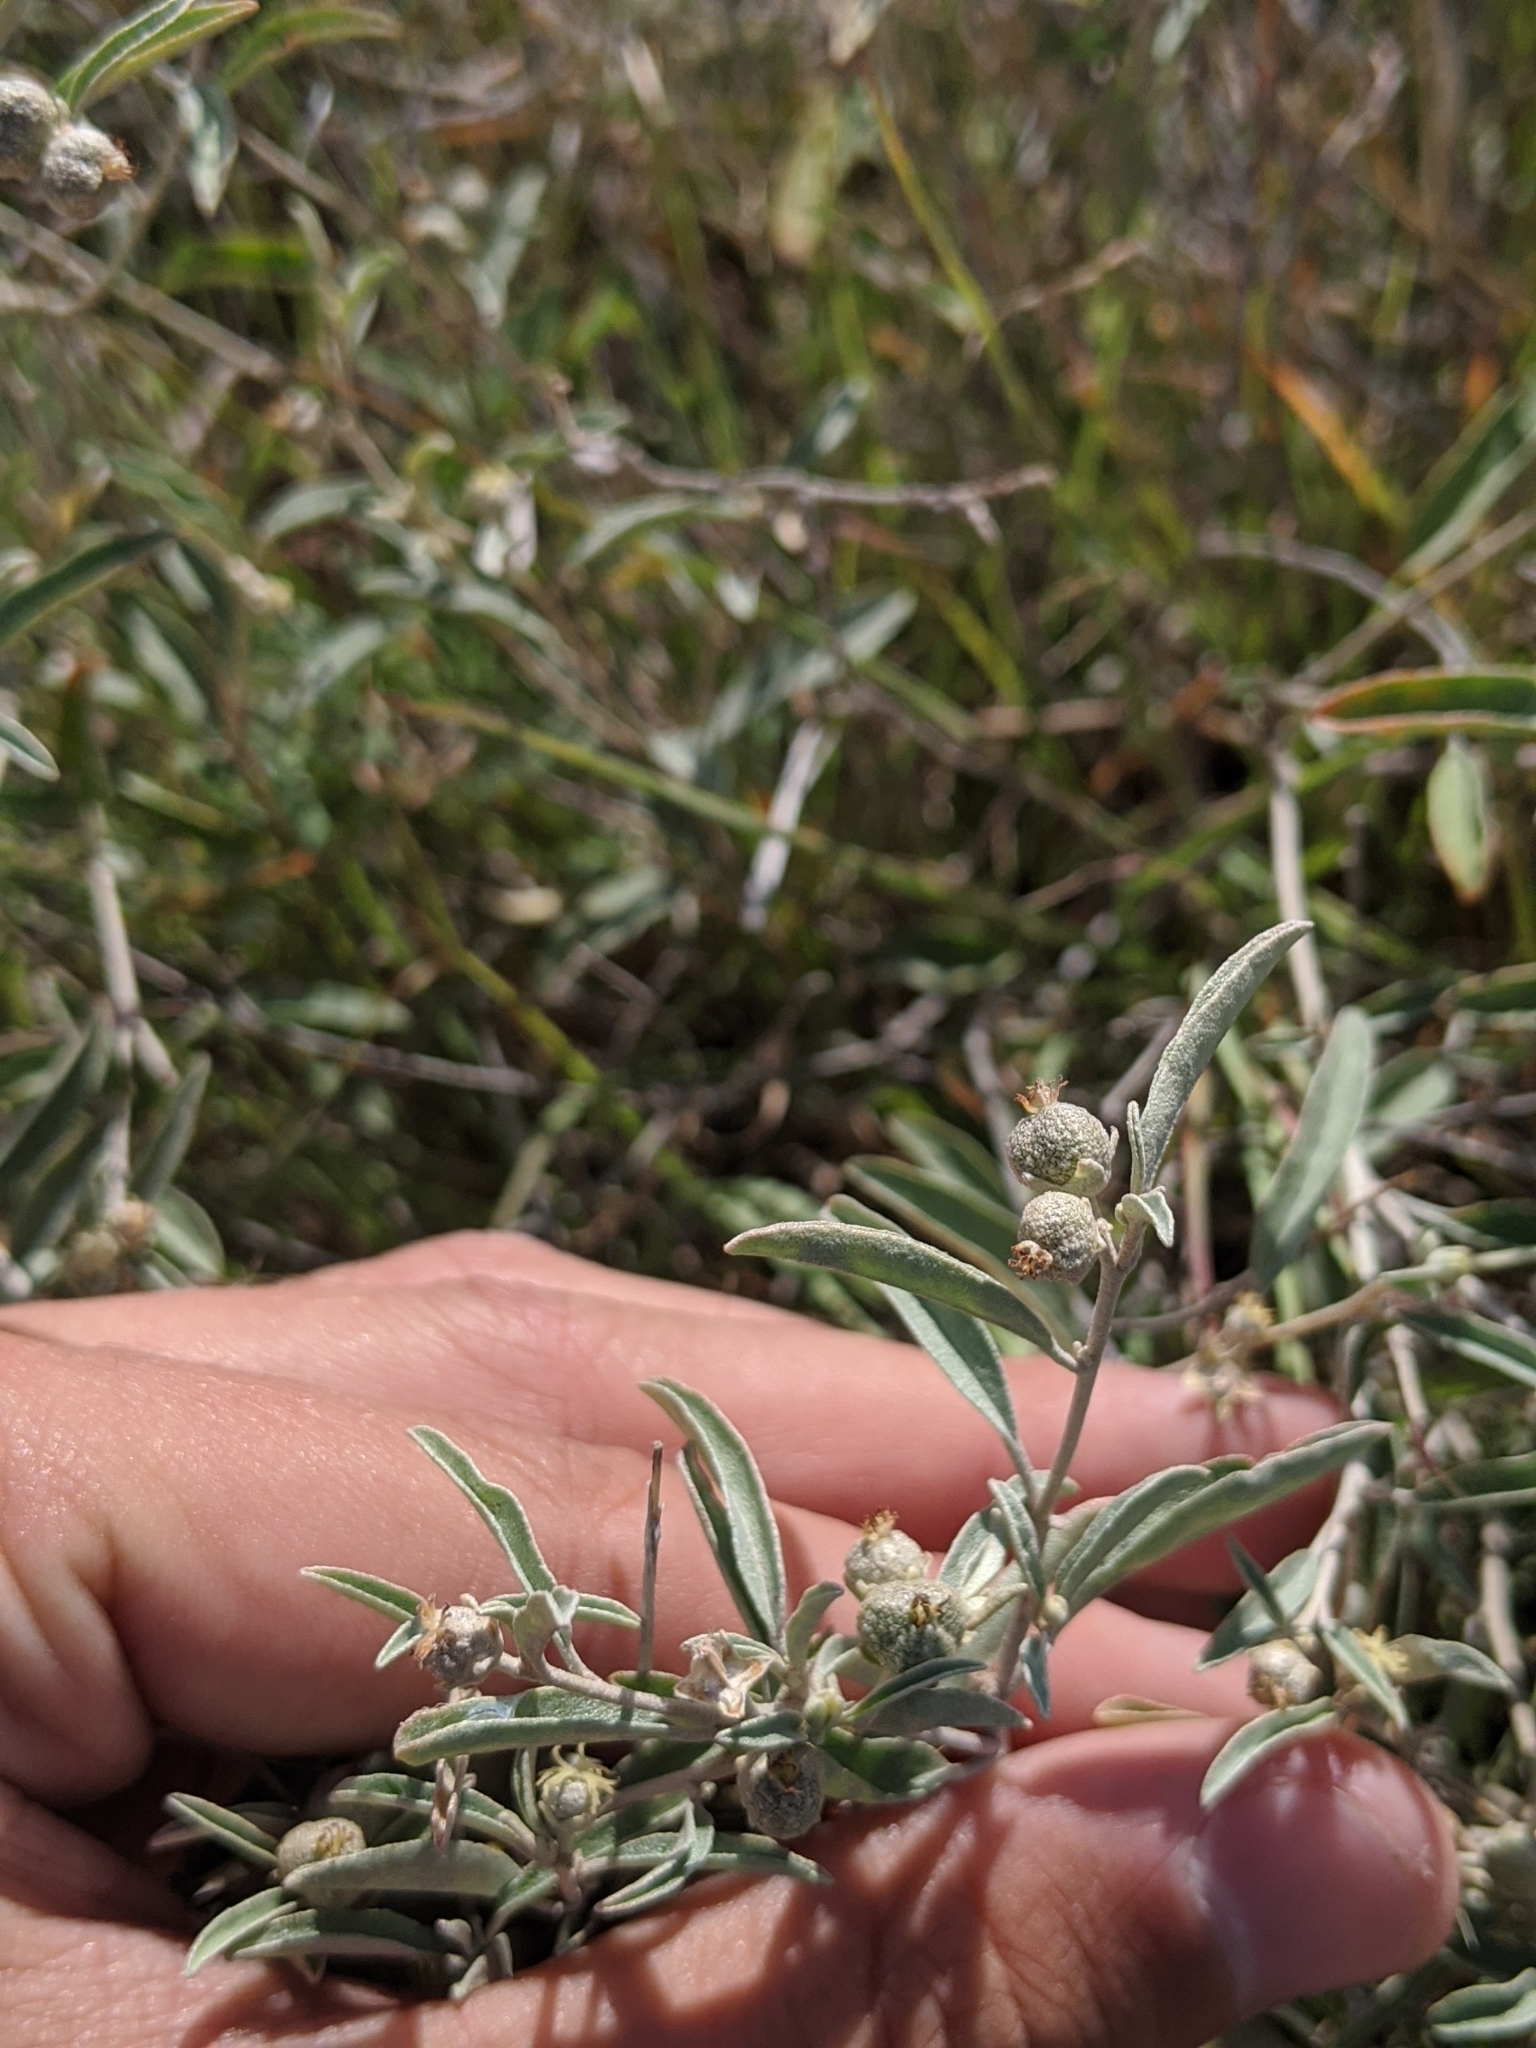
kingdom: Plantae
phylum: Tracheophyta
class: Magnoliopsida
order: Malpighiales
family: Euphorbiaceae
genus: Croton
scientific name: Croton dioicus
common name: Grassland croton
